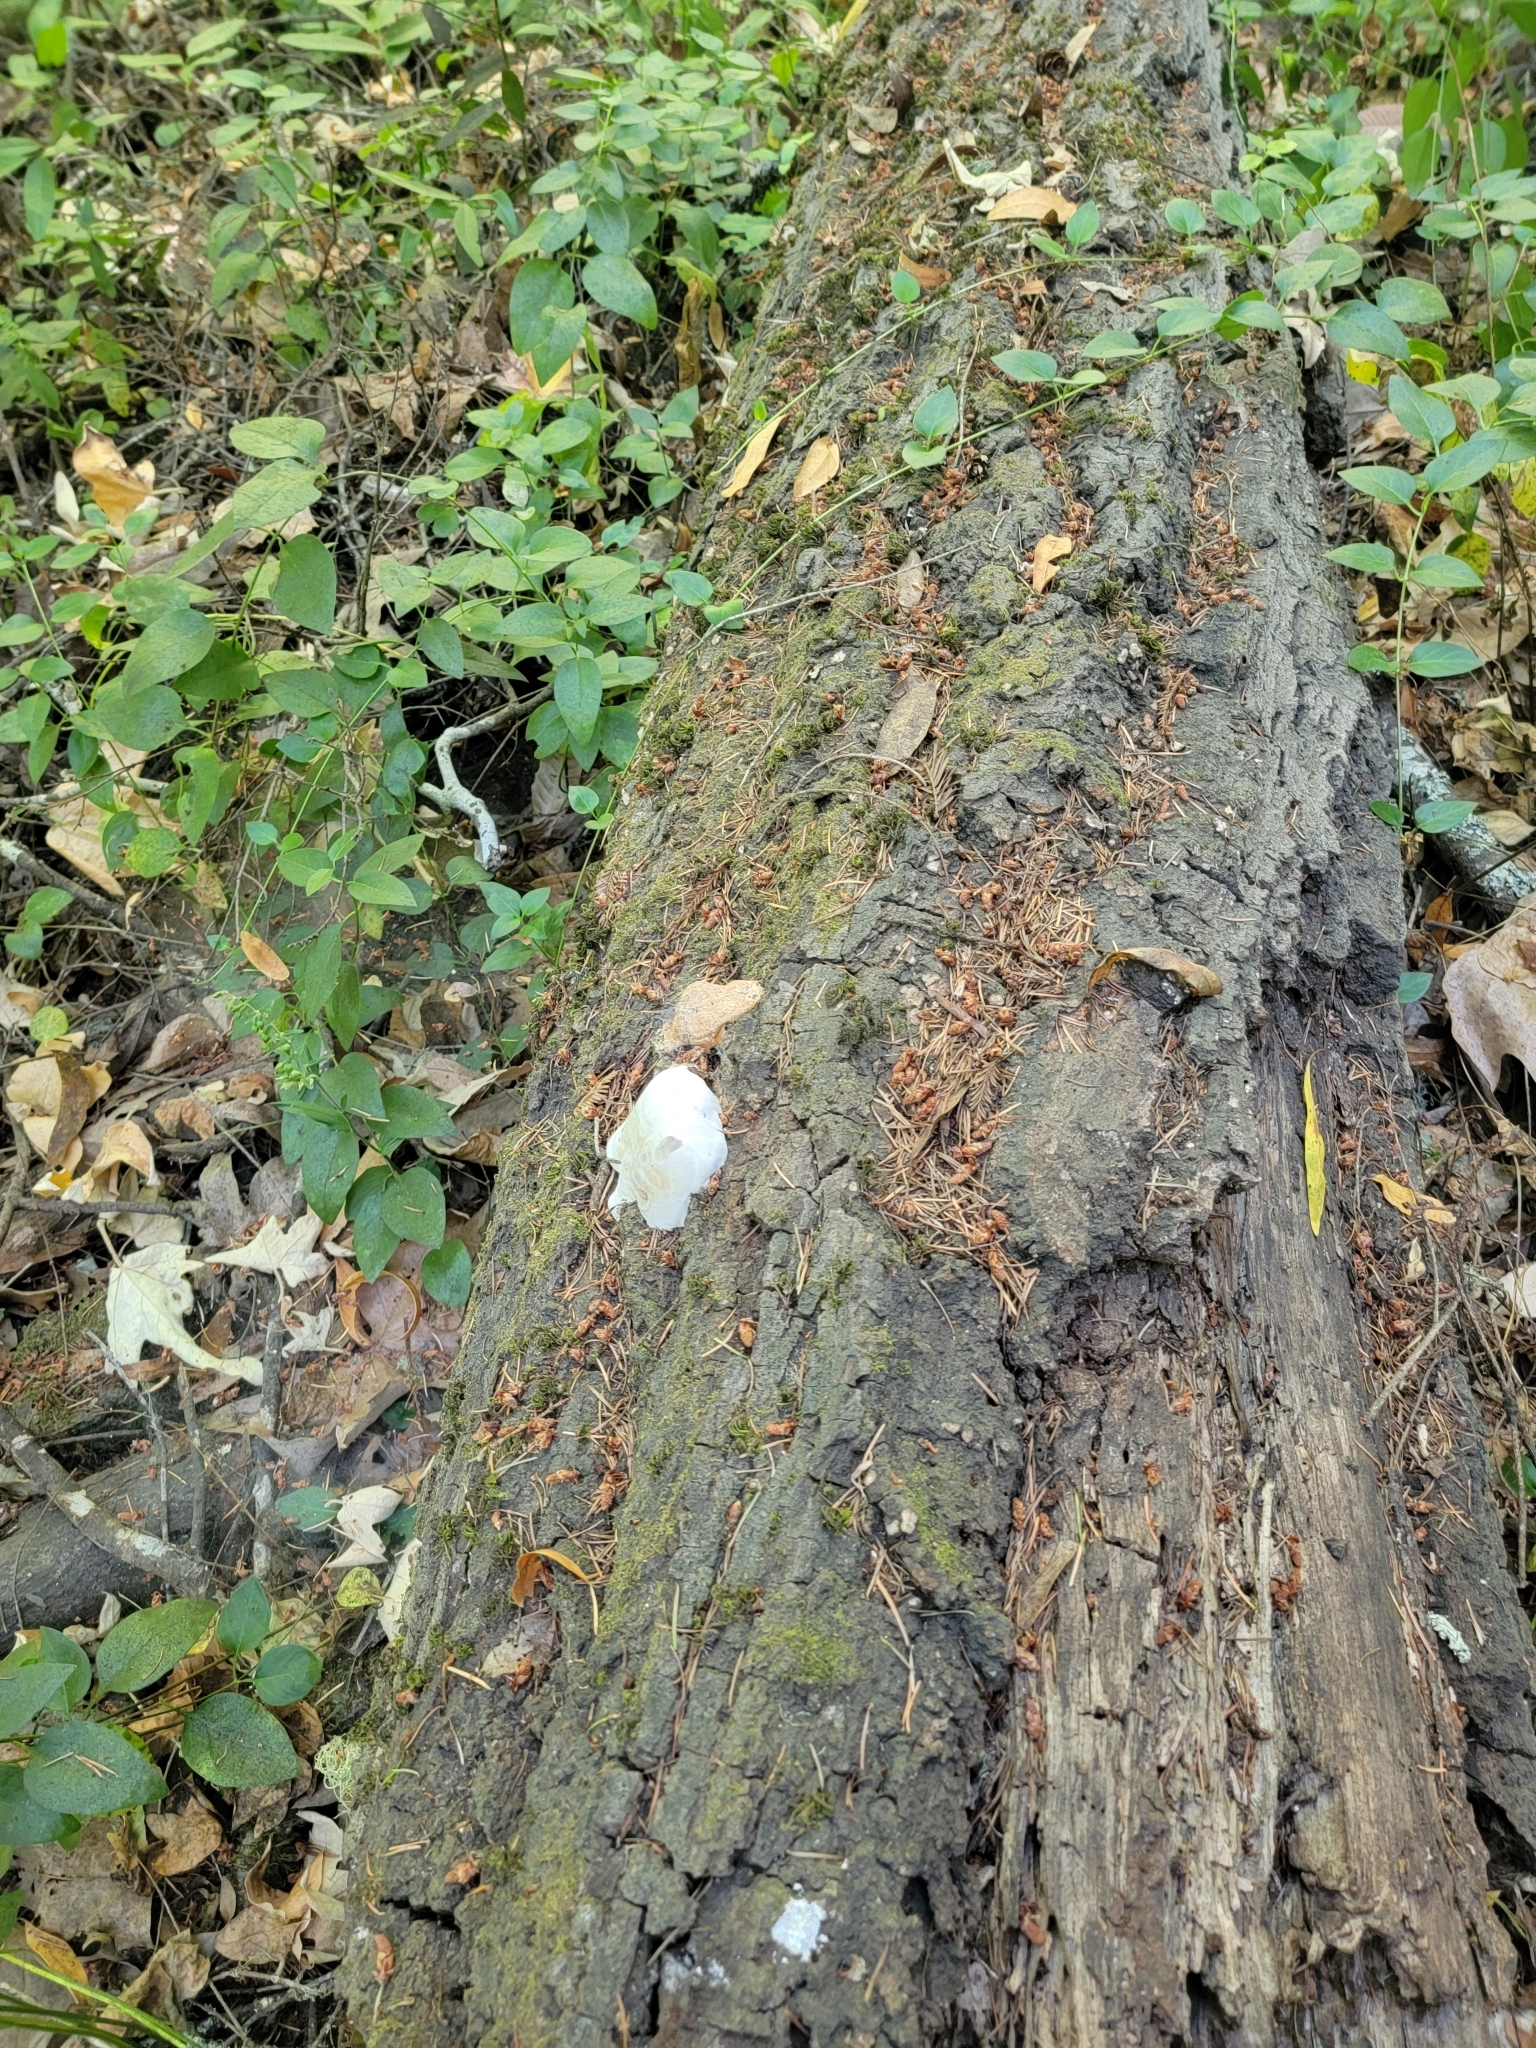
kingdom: Fungi
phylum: Basidiomycota
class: Agaricomycetes
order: Polyporales
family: Polyporaceae
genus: Ganoderma
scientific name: Ganoderma brownii
